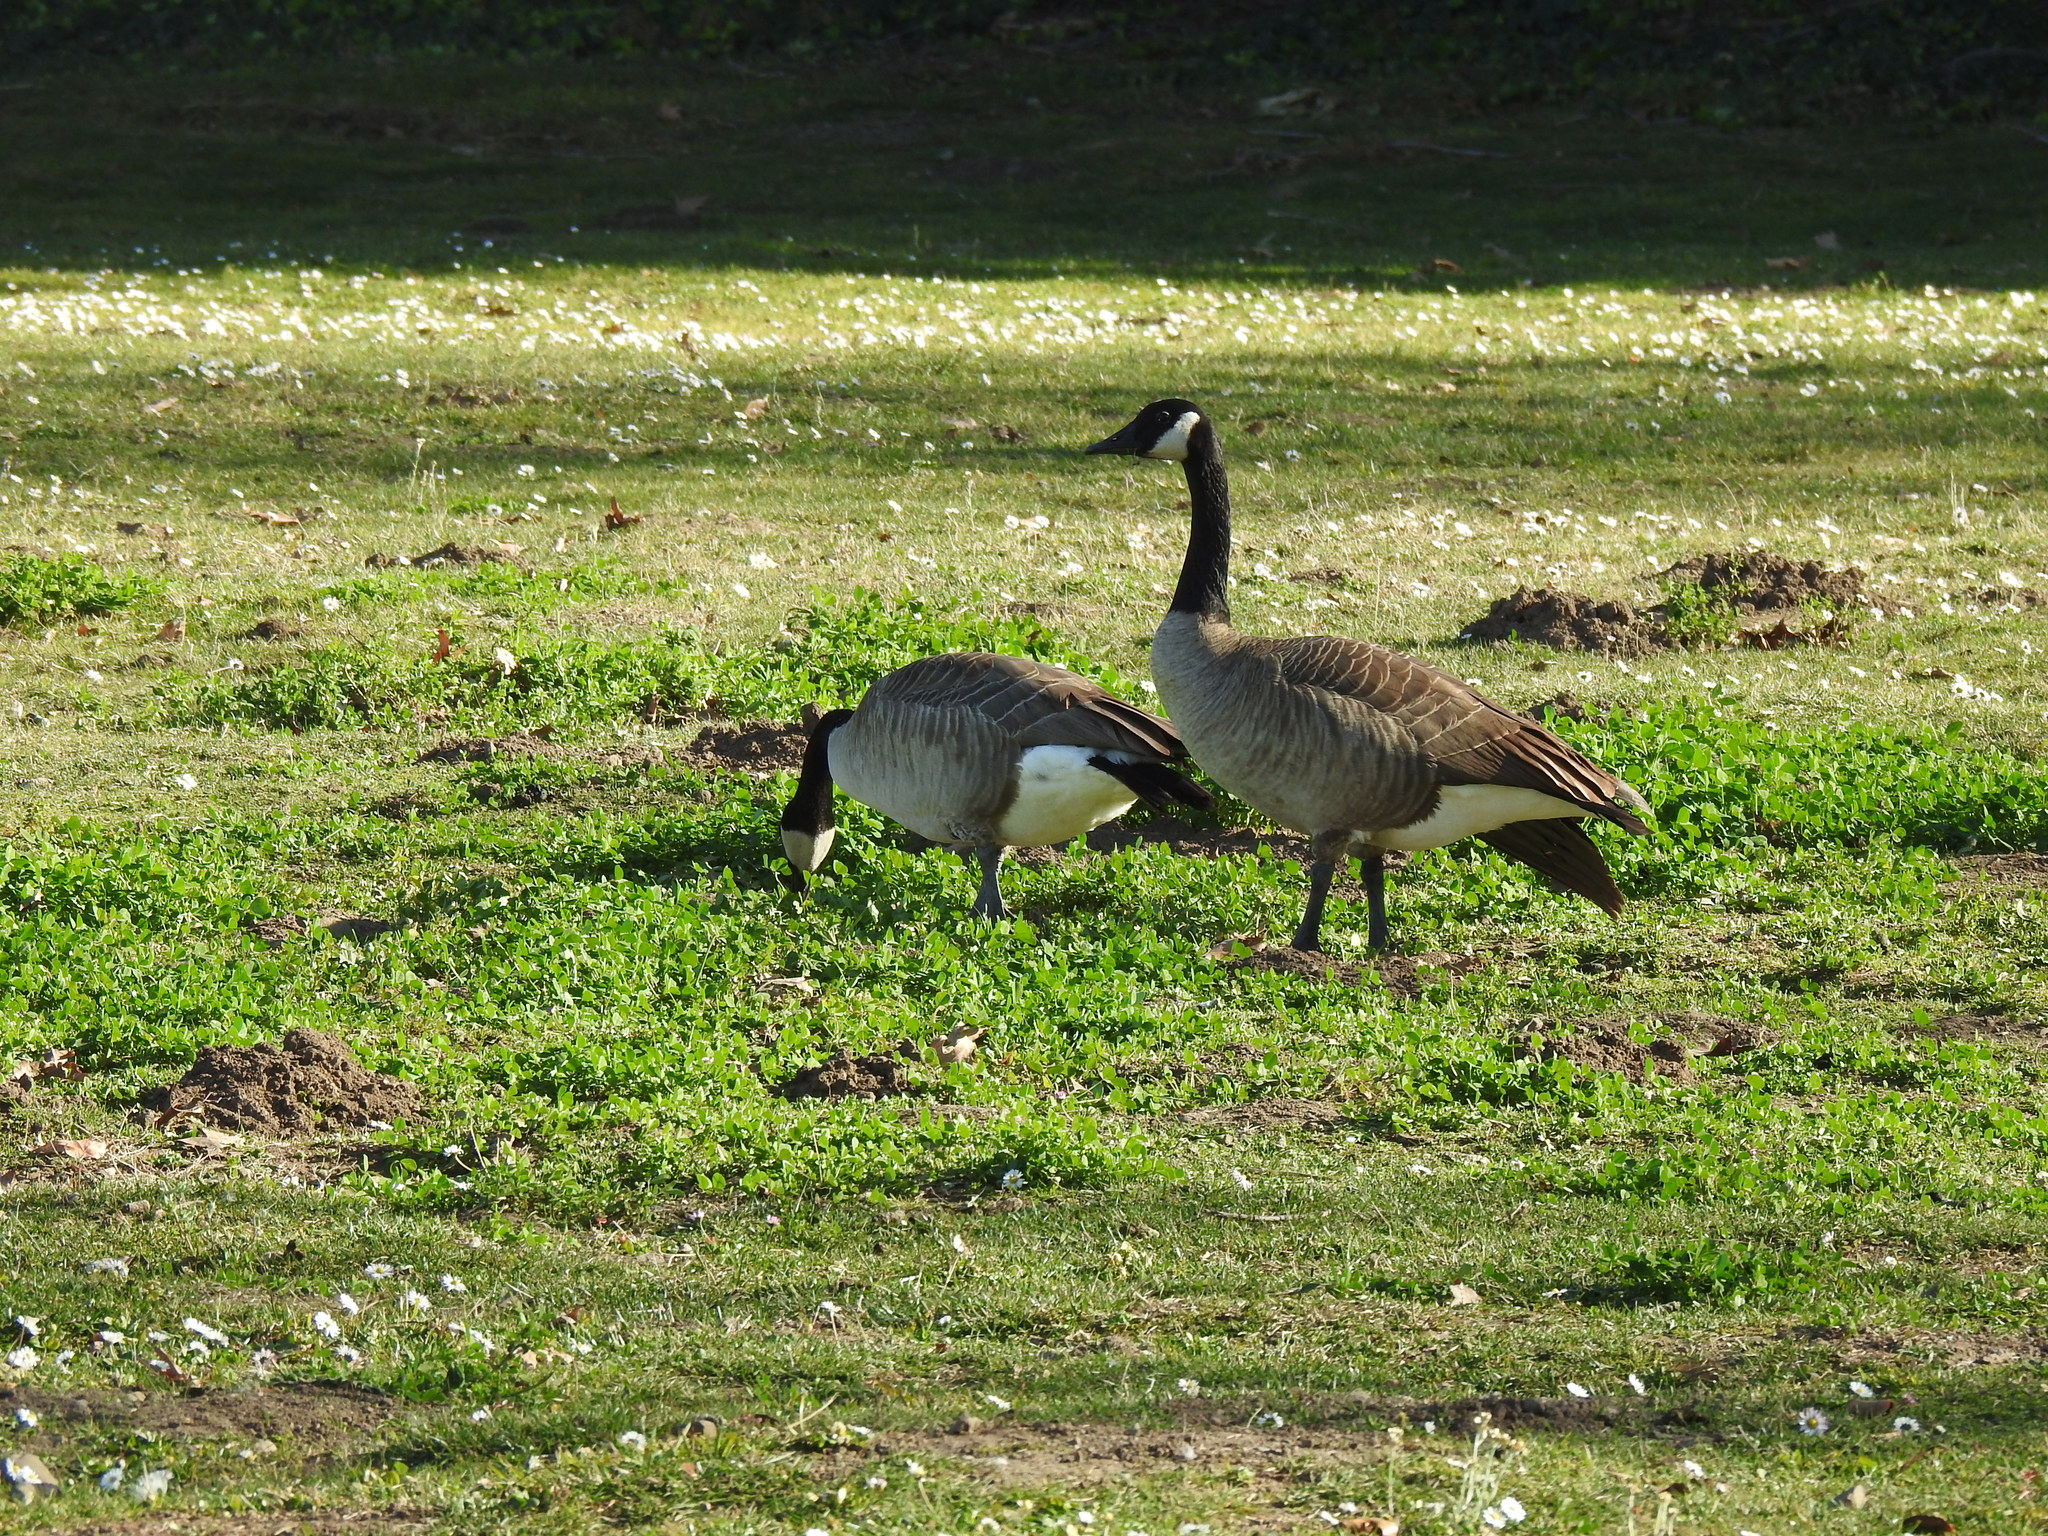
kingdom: Animalia
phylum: Chordata
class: Aves
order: Anseriformes
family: Anatidae
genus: Branta
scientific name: Branta canadensis
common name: Canada goose
